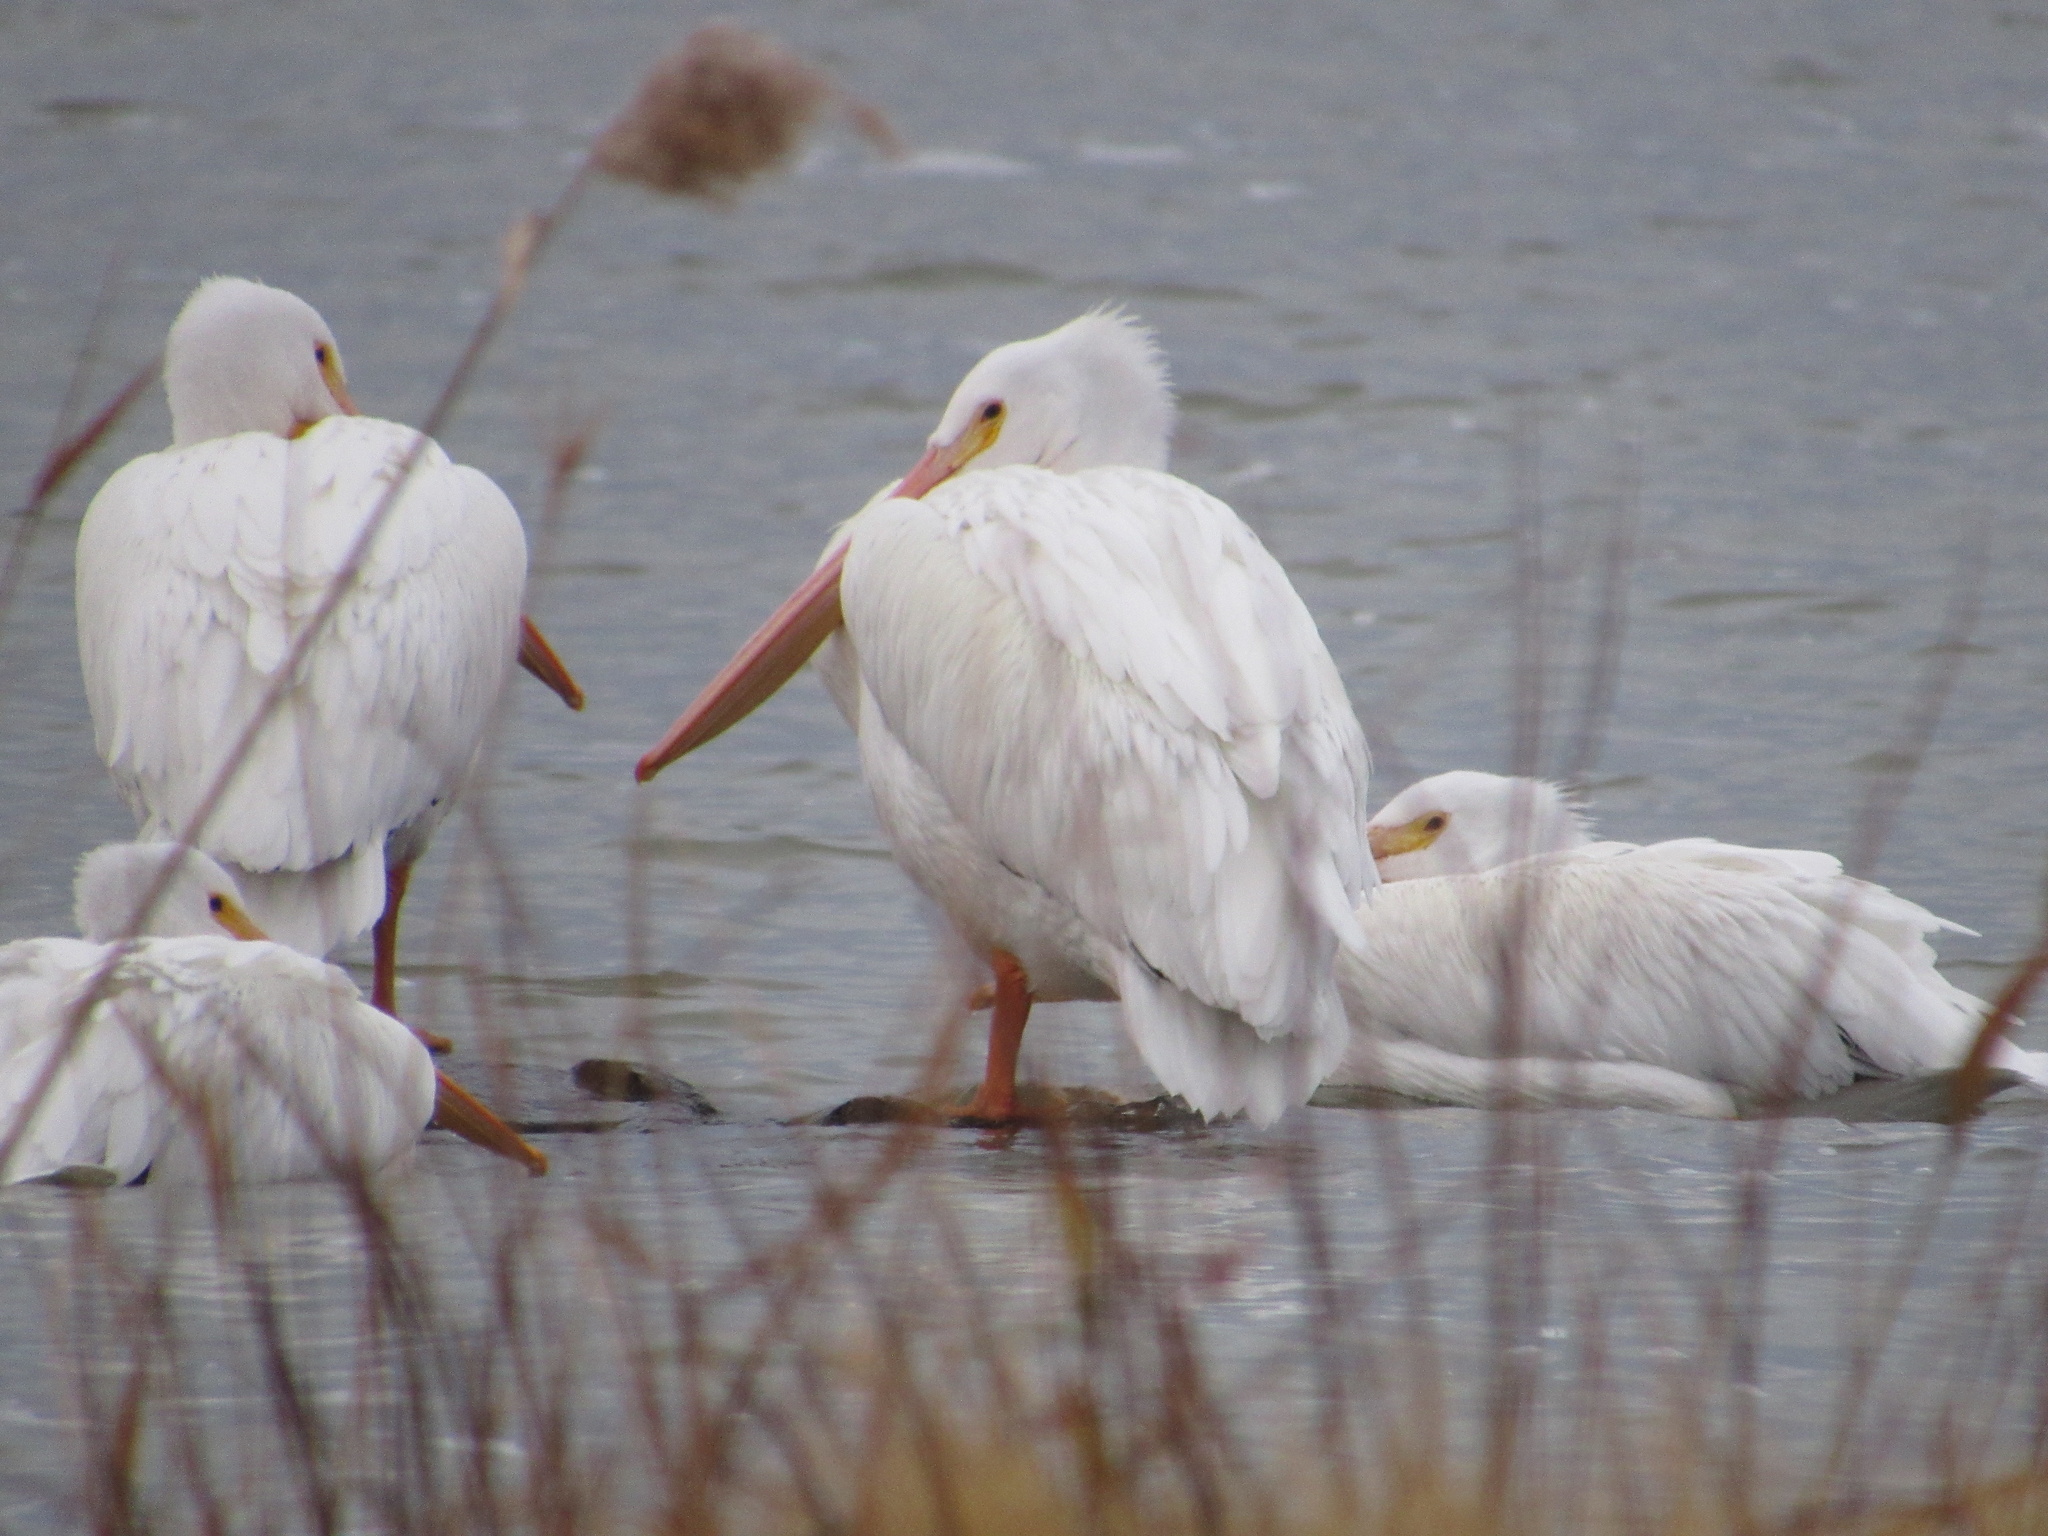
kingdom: Animalia
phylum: Chordata
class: Aves
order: Pelecaniformes
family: Pelecanidae
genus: Pelecanus
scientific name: Pelecanus erythrorhynchos
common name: American white pelican
